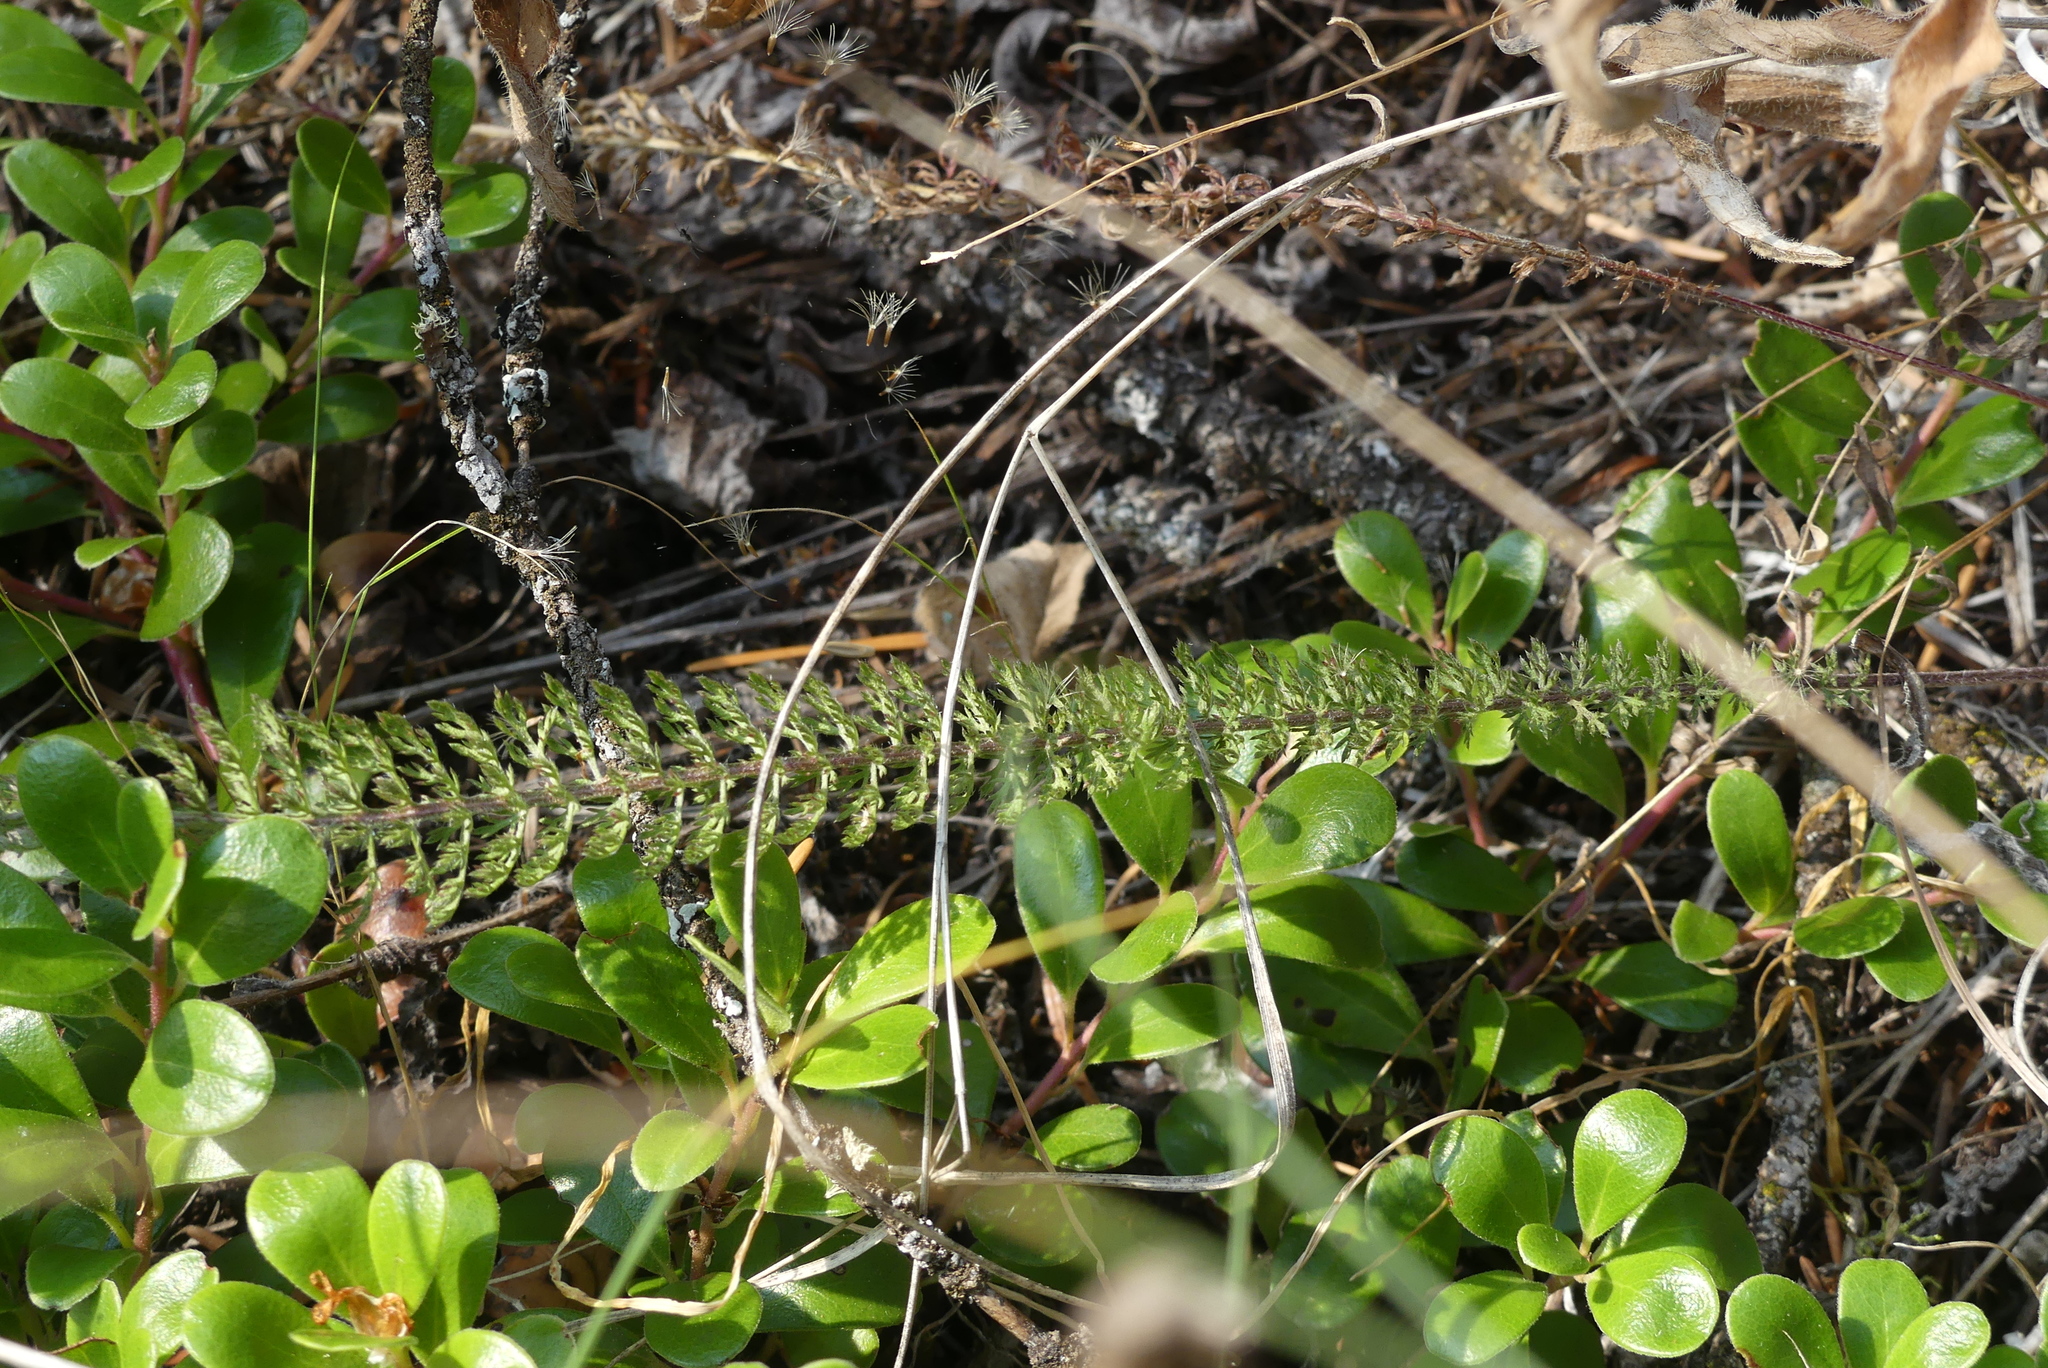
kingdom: Plantae
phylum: Tracheophyta
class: Magnoliopsida
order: Asterales
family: Asteraceae
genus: Achillea
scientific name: Achillea millefolium
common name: Yarrow
